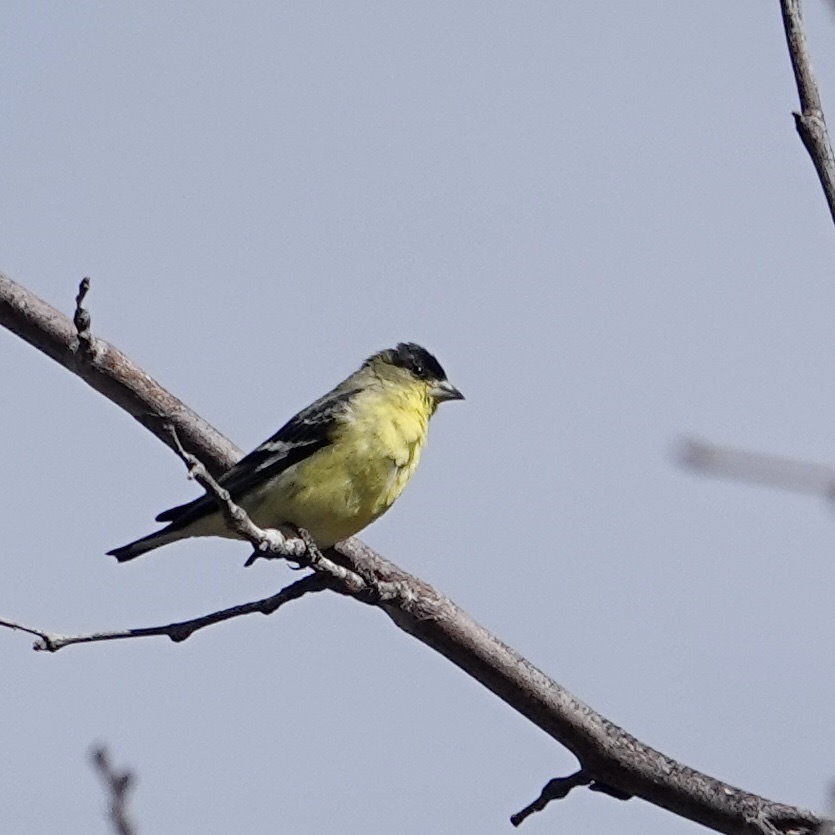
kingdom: Animalia
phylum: Chordata
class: Aves
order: Passeriformes
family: Fringillidae
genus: Spinus
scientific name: Spinus psaltria
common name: Lesser goldfinch
